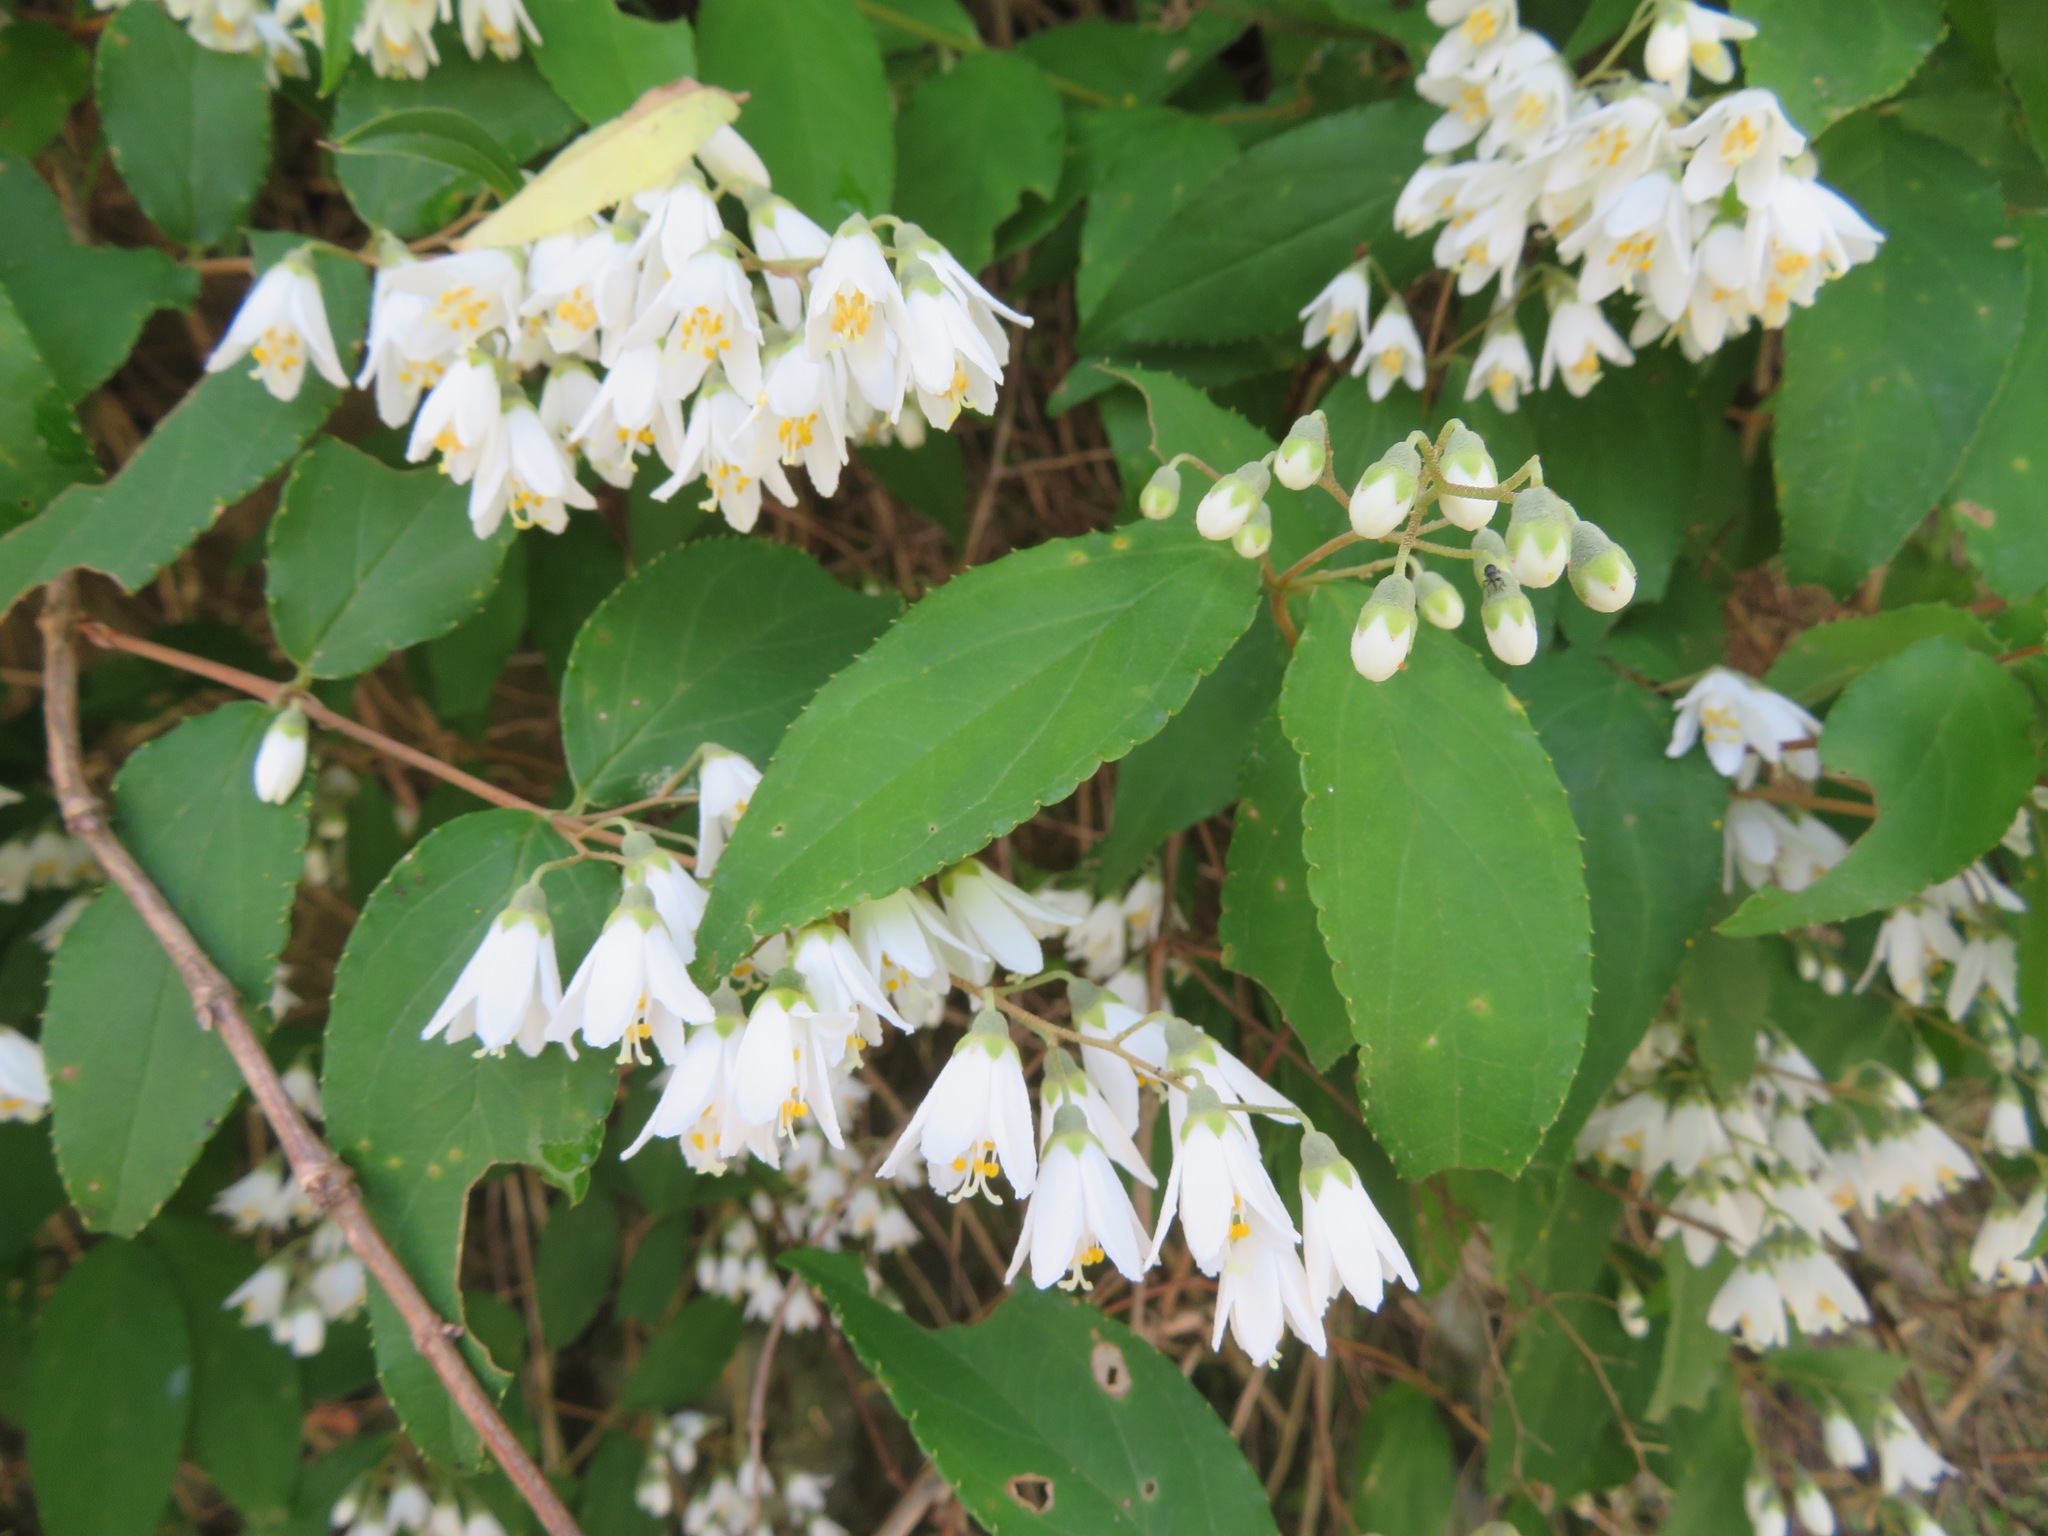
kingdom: Plantae
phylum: Tracheophyta
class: Magnoliopsida
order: Cornales
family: Hydrangeaceae
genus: Deutzia
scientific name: Deutzia crenata
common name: Deutzia
